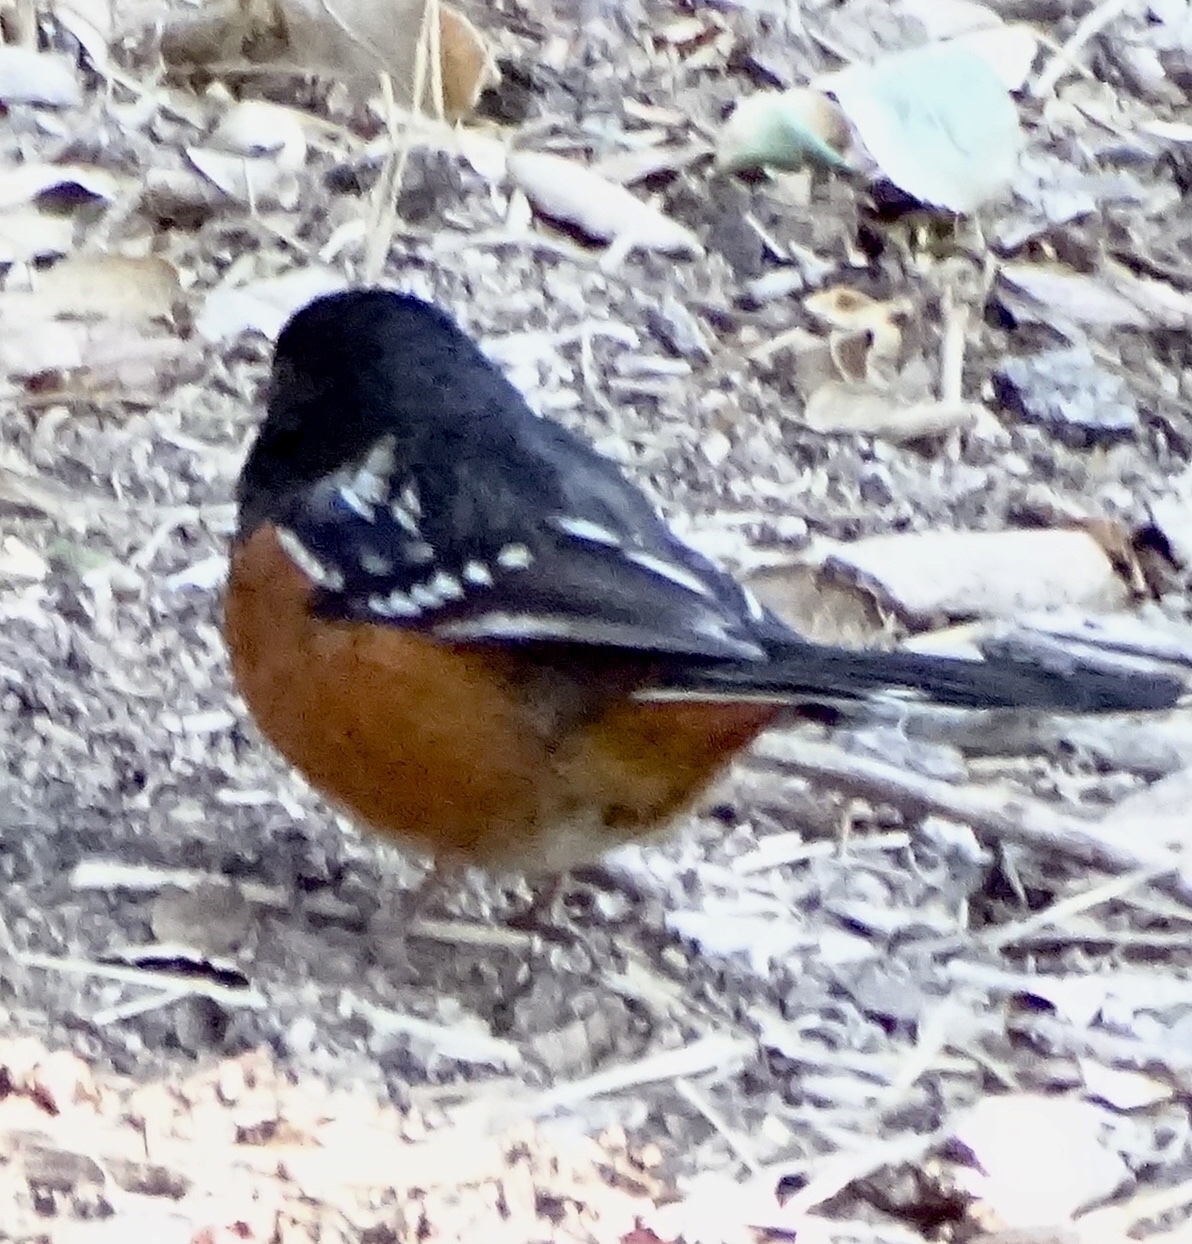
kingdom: Animalia
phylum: Chordata
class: Aves
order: Passeriformes
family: Passerellidae
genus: Pipilo
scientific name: Pipilo maculatus
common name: Spotted towhee
